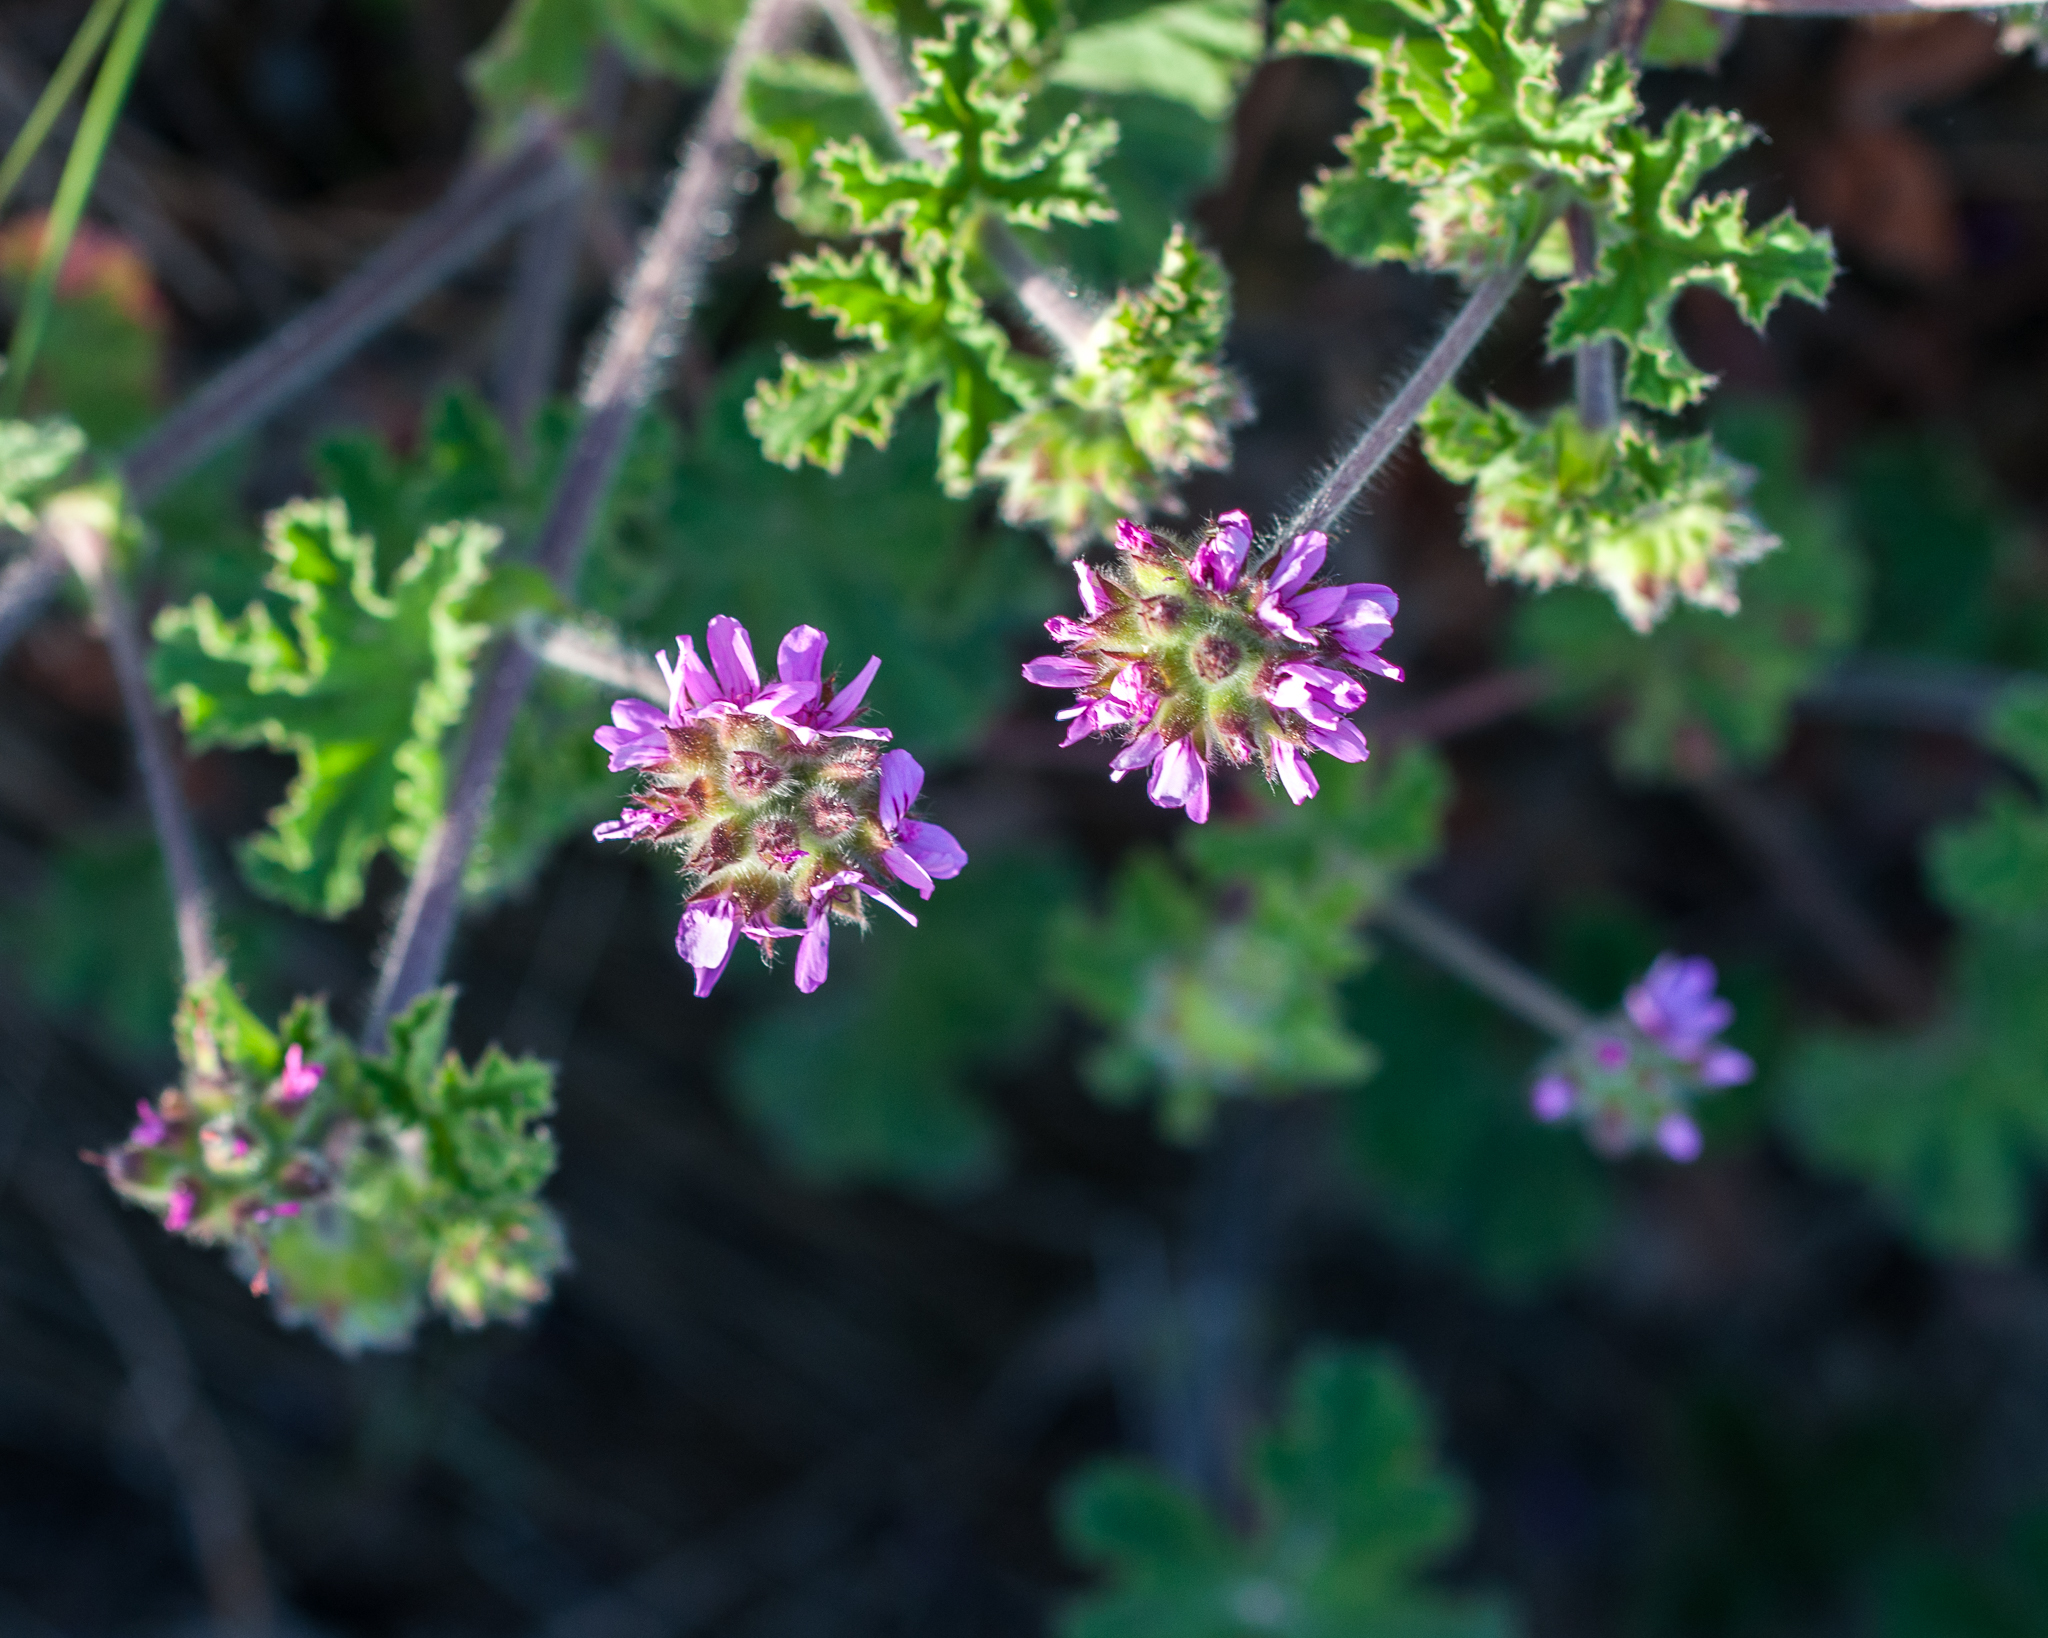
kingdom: Plantae
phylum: Tracheophyta
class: Magnoliopsida
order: Geraniales
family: Geraniaceae
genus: Pelargonium
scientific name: Pelargonium capitatum
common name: Rose scented geranium
